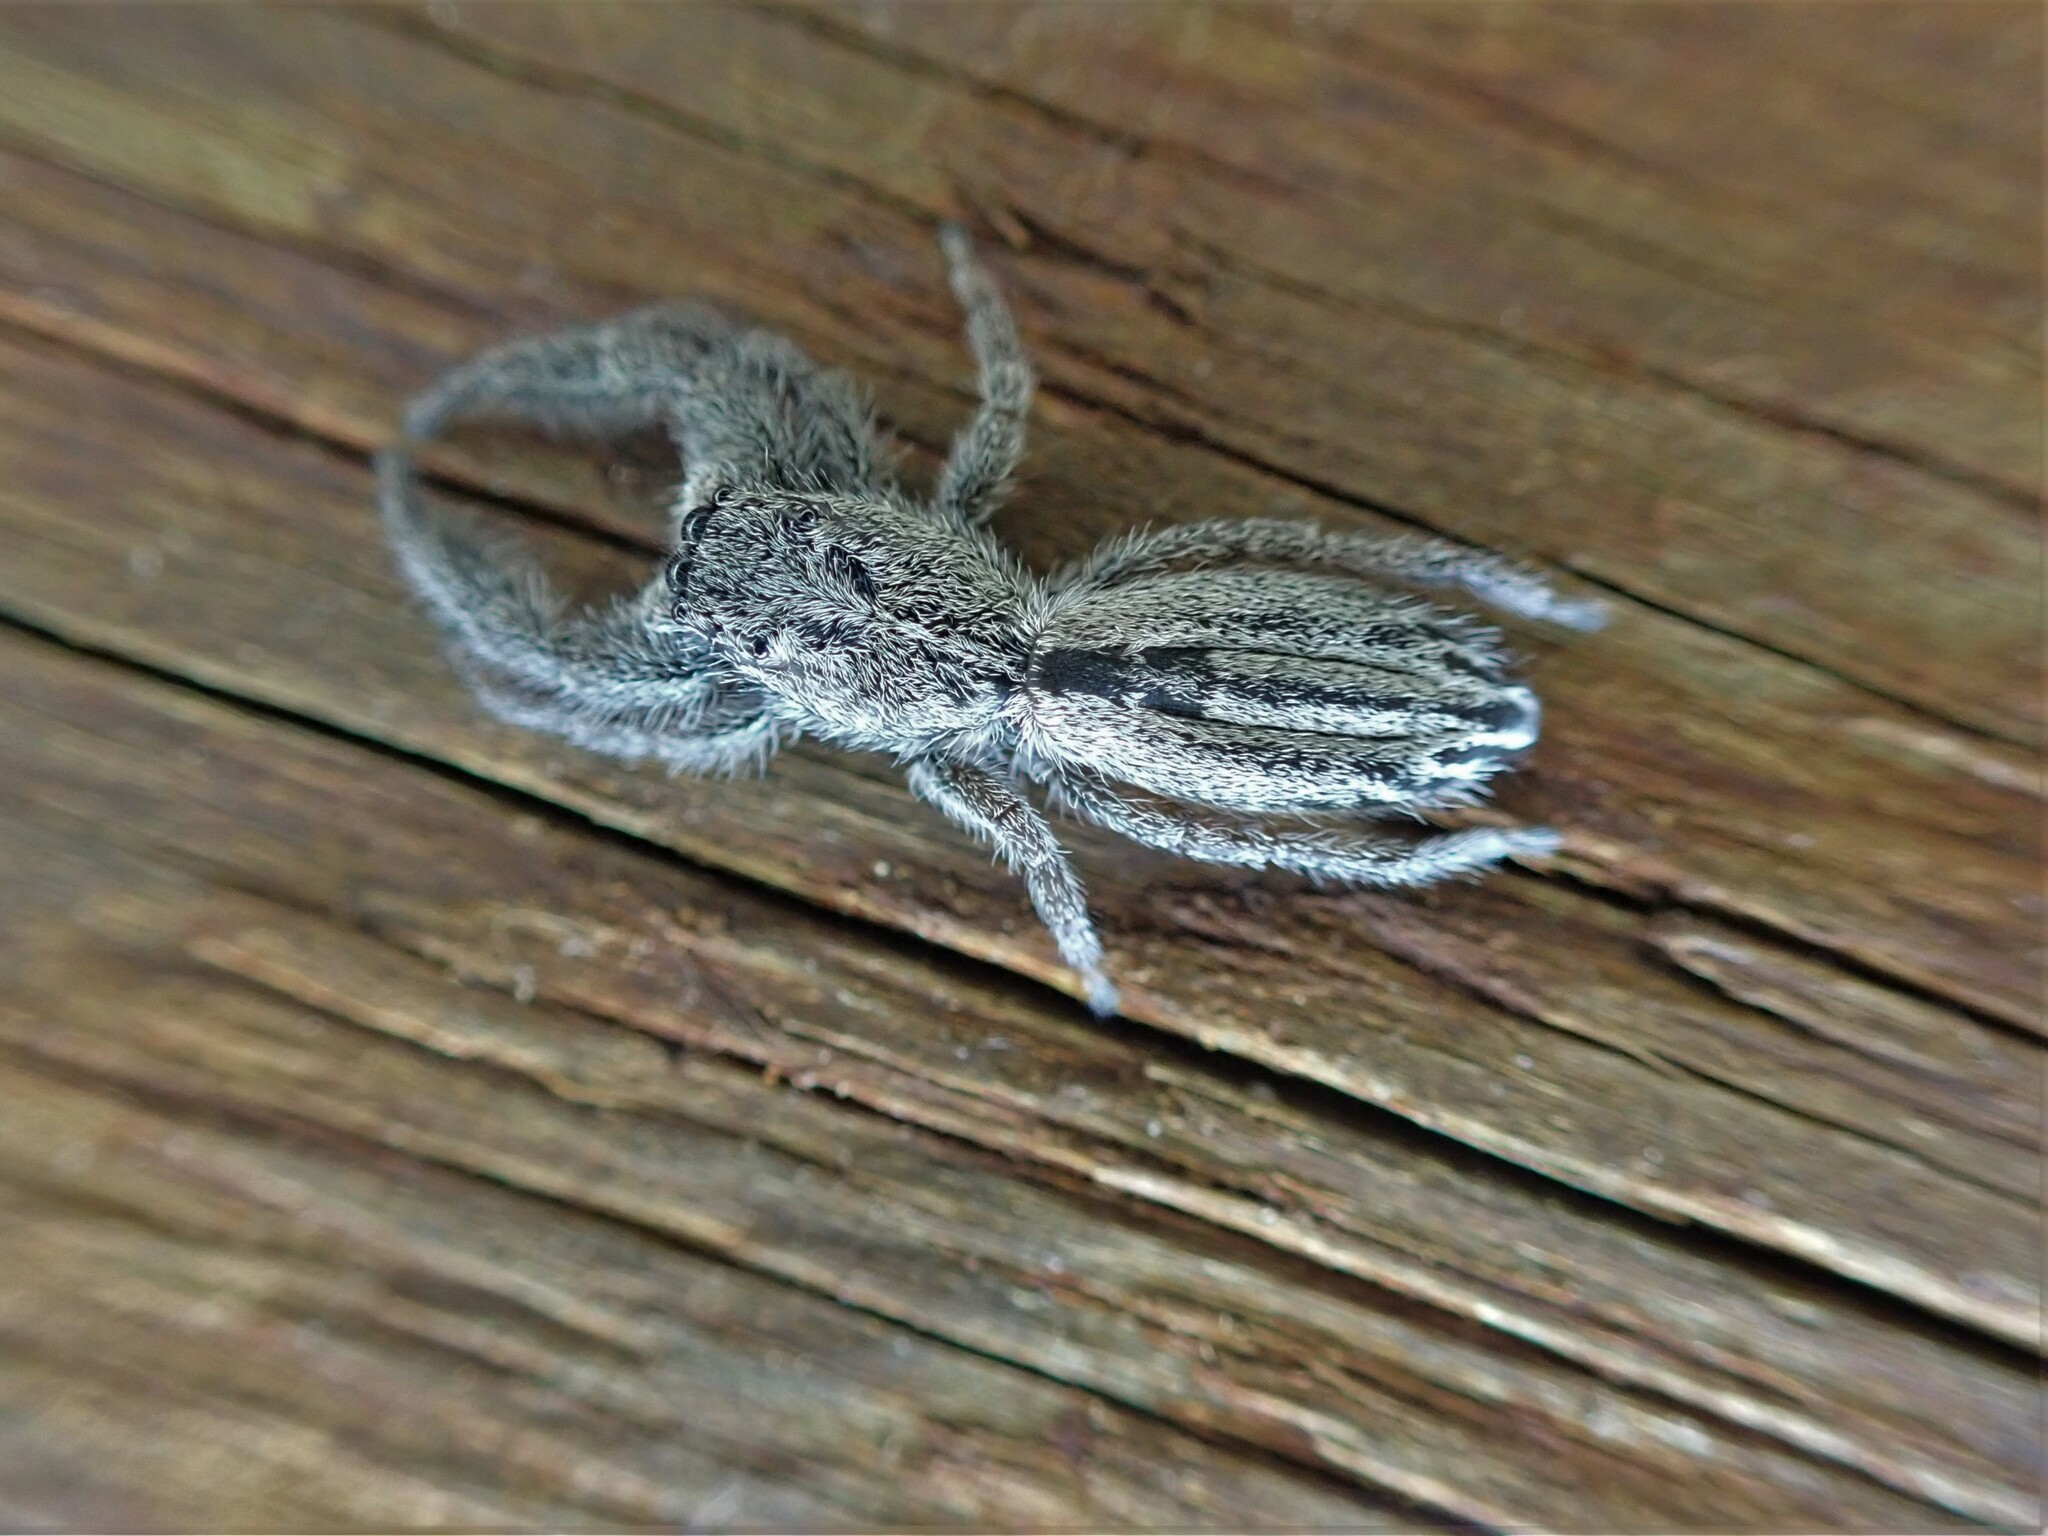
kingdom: Animalia
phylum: Arthropoda
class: Arachnida
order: Araneae
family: Salticidae
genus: Holoplatys
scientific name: Holoplatys apressus
